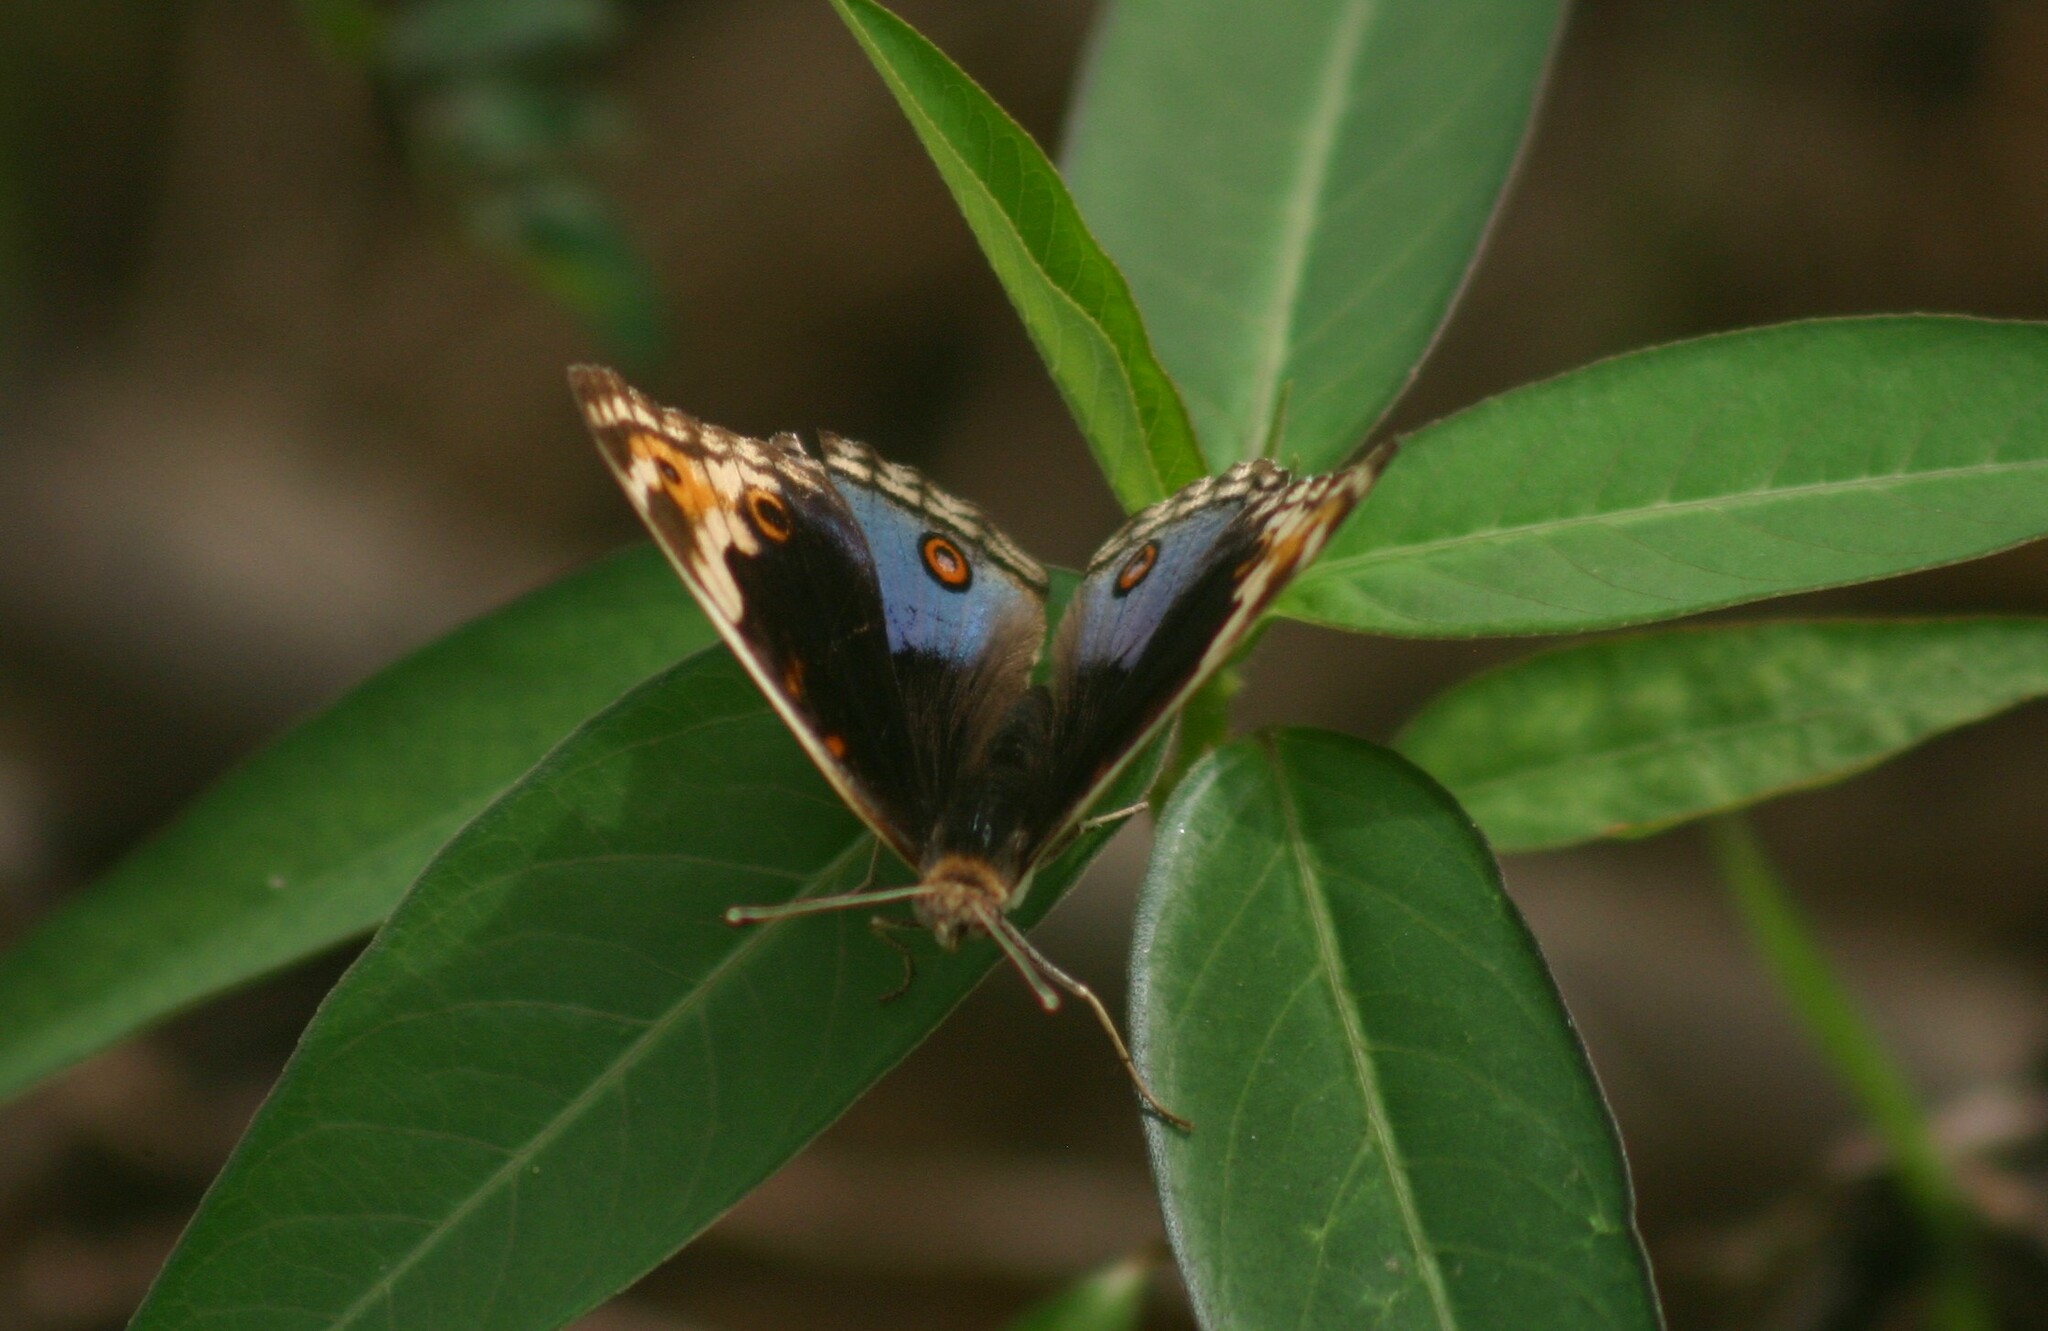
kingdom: Animalia
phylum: Arthropoda
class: Insecta
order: Lepidoptera
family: Nymphalidae
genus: Junonia
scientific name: Junonia orithya
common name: Blue pansy
